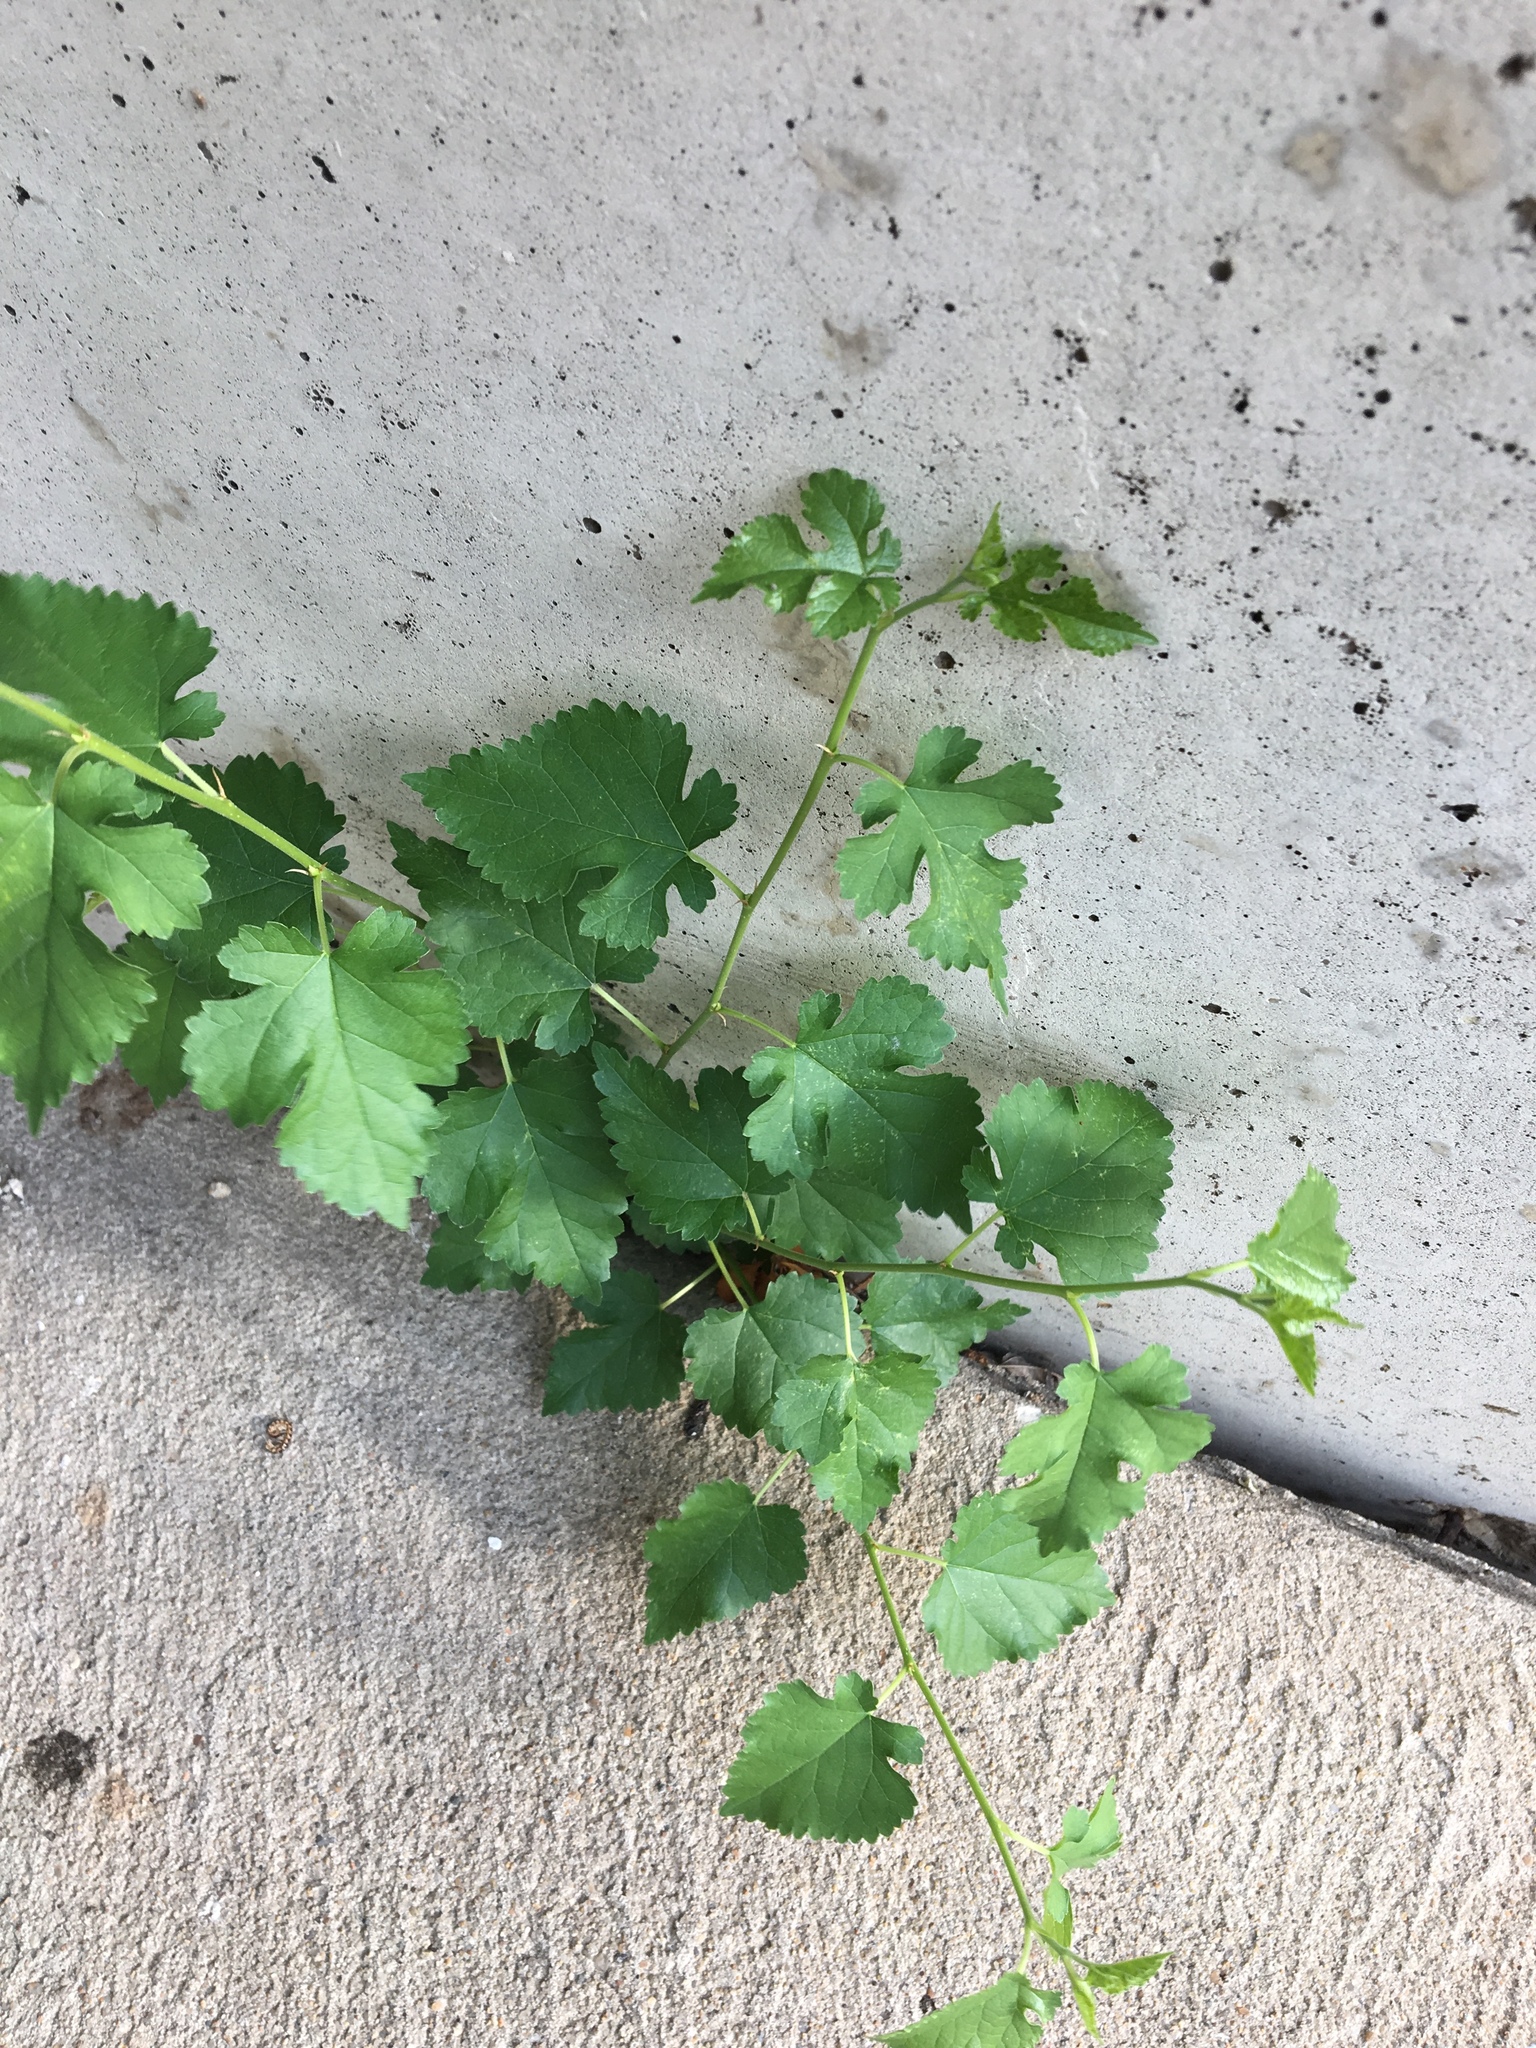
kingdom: Plantae
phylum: Tracheophyta
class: Magnoliopsida
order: Rosales
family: Moraceae
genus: Morus
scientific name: Morus alba
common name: White mulberry
